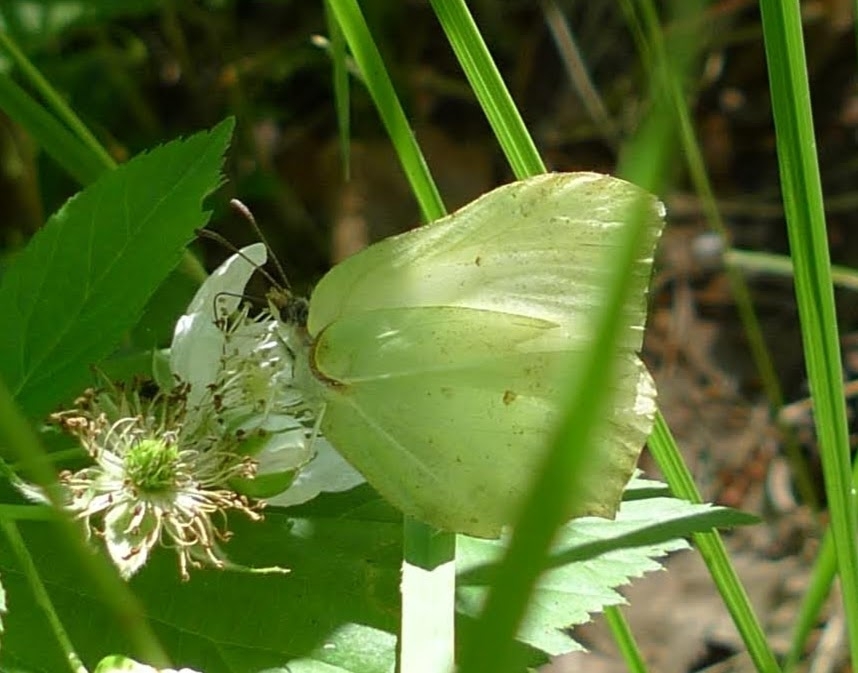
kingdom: Animalia
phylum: Arthropoda
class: Insecta
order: Lepidoptera
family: Pieridae
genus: Gonepteryx
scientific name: Gonepteryx rhamni
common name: Brimstone
